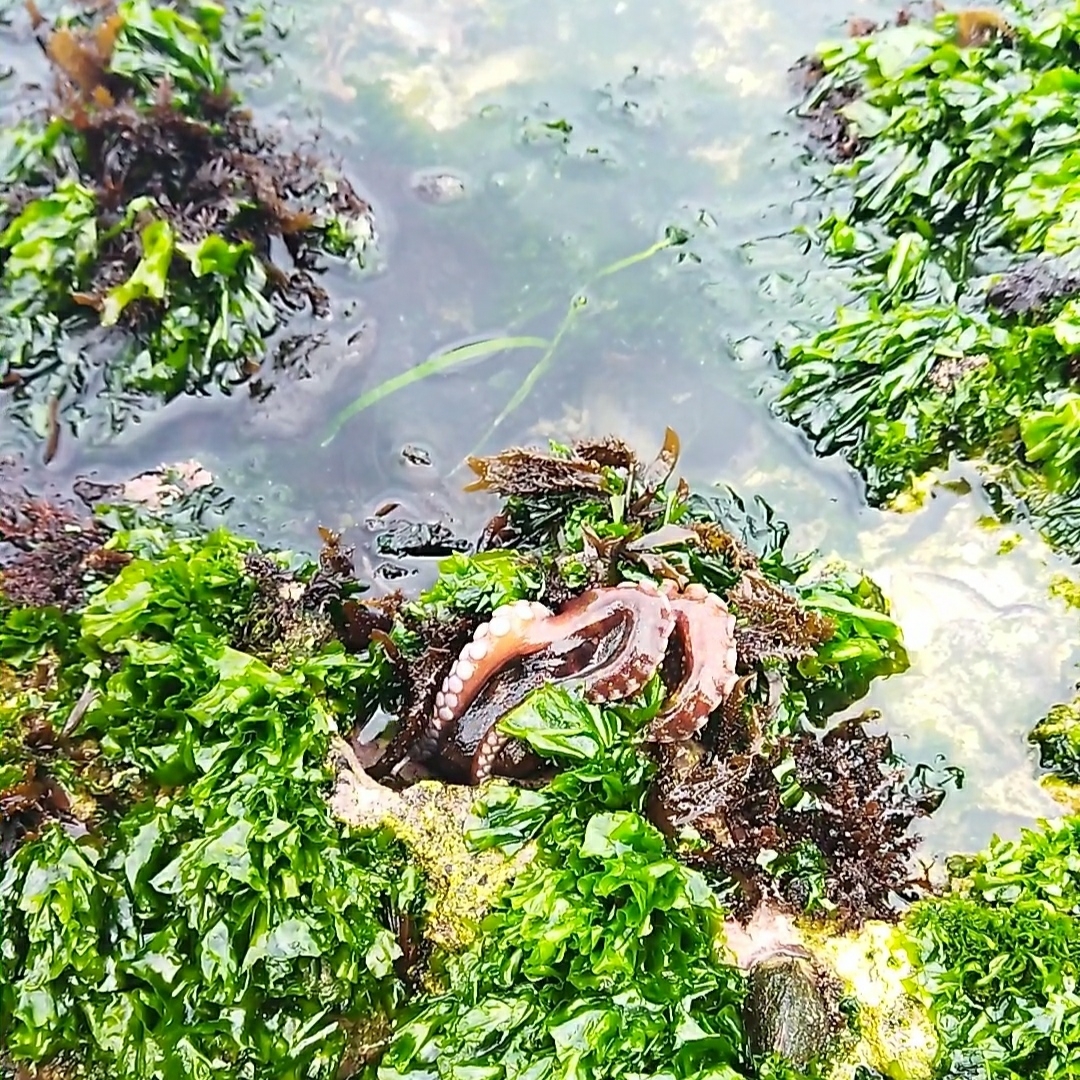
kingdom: Animalia
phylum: Mollusca
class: Cephalopoda
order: Octopoda
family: Octopodidae
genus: Octopus
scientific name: Octopus vulgaris
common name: Common octopus
